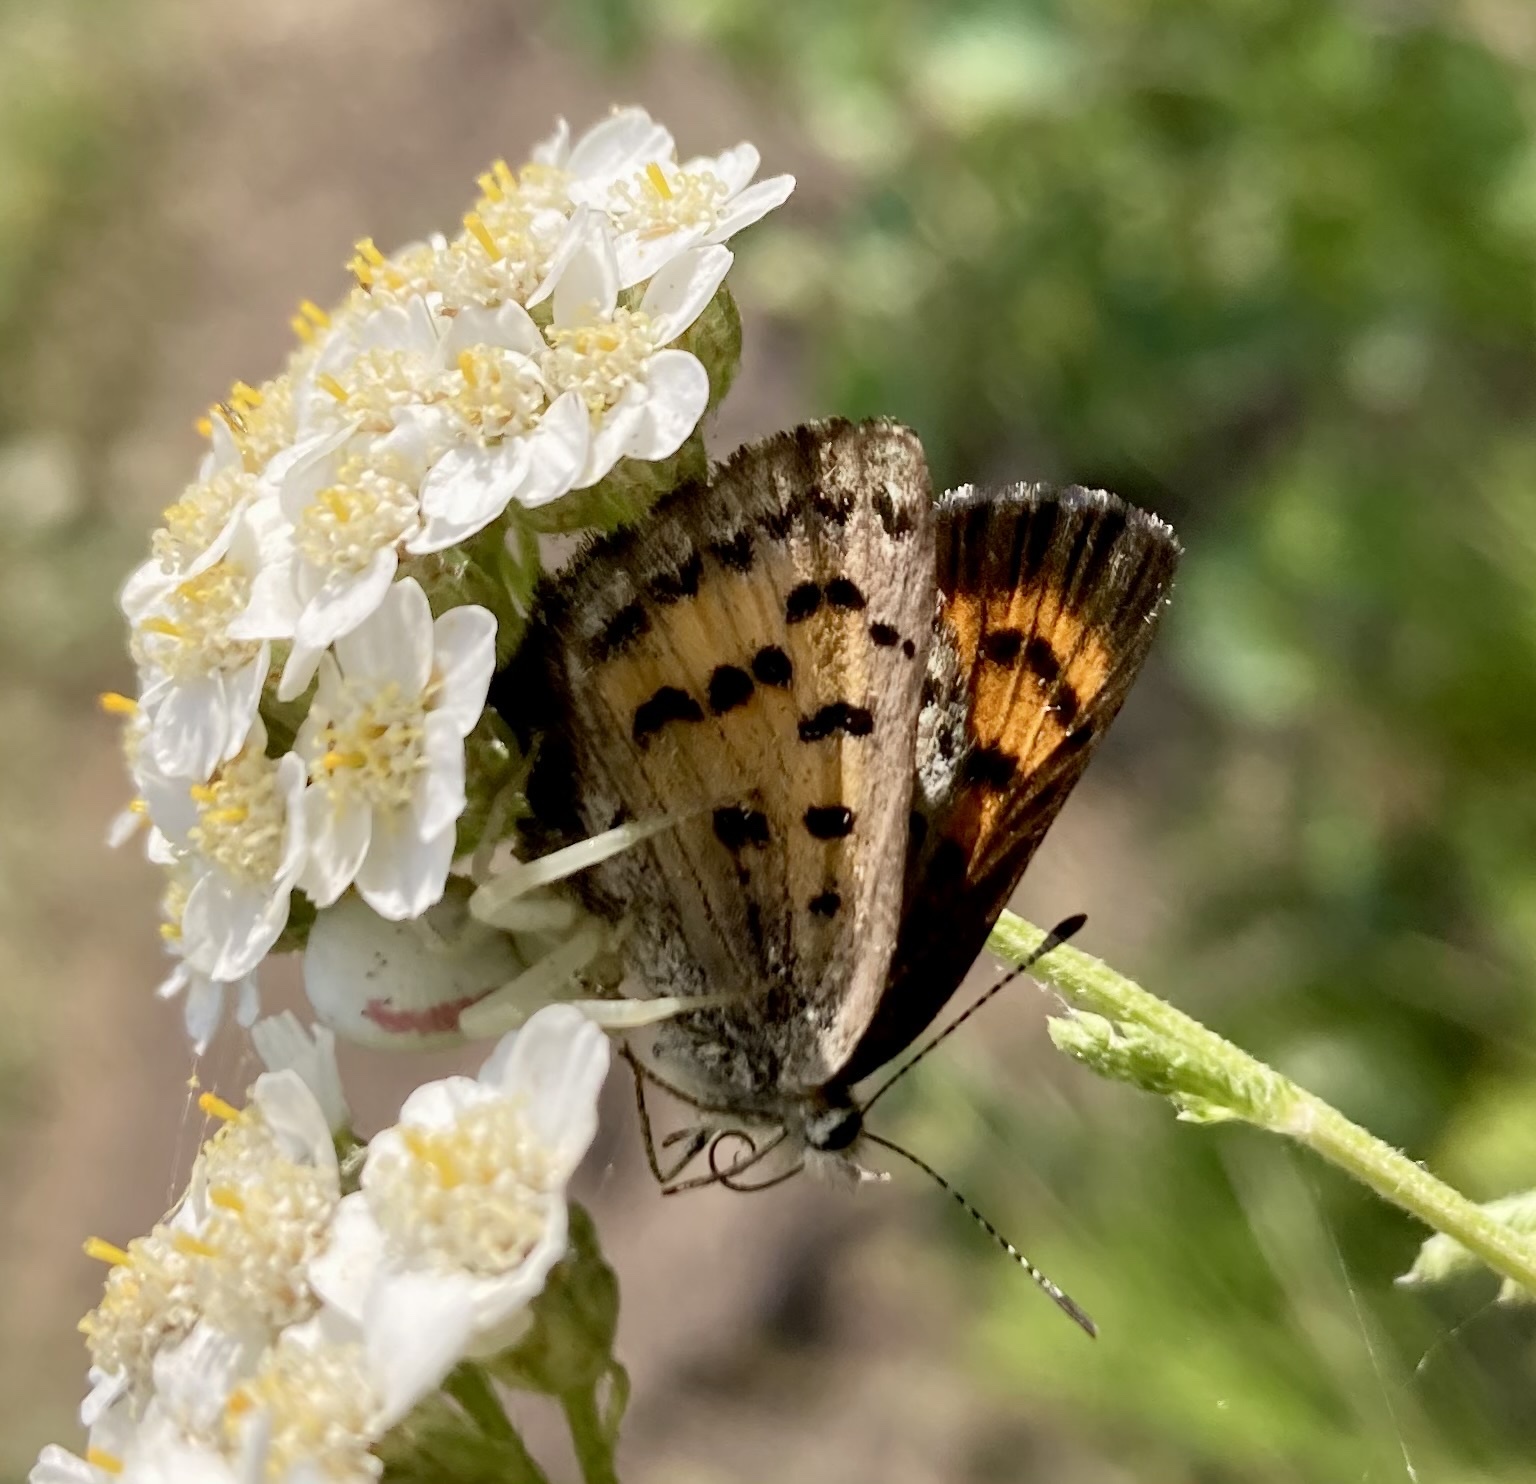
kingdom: Animalia
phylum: Arthropoda
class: Insecta
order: Lepidoptera
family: Lycaenidae
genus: Tharsalea
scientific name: Tharsalea mariposa
